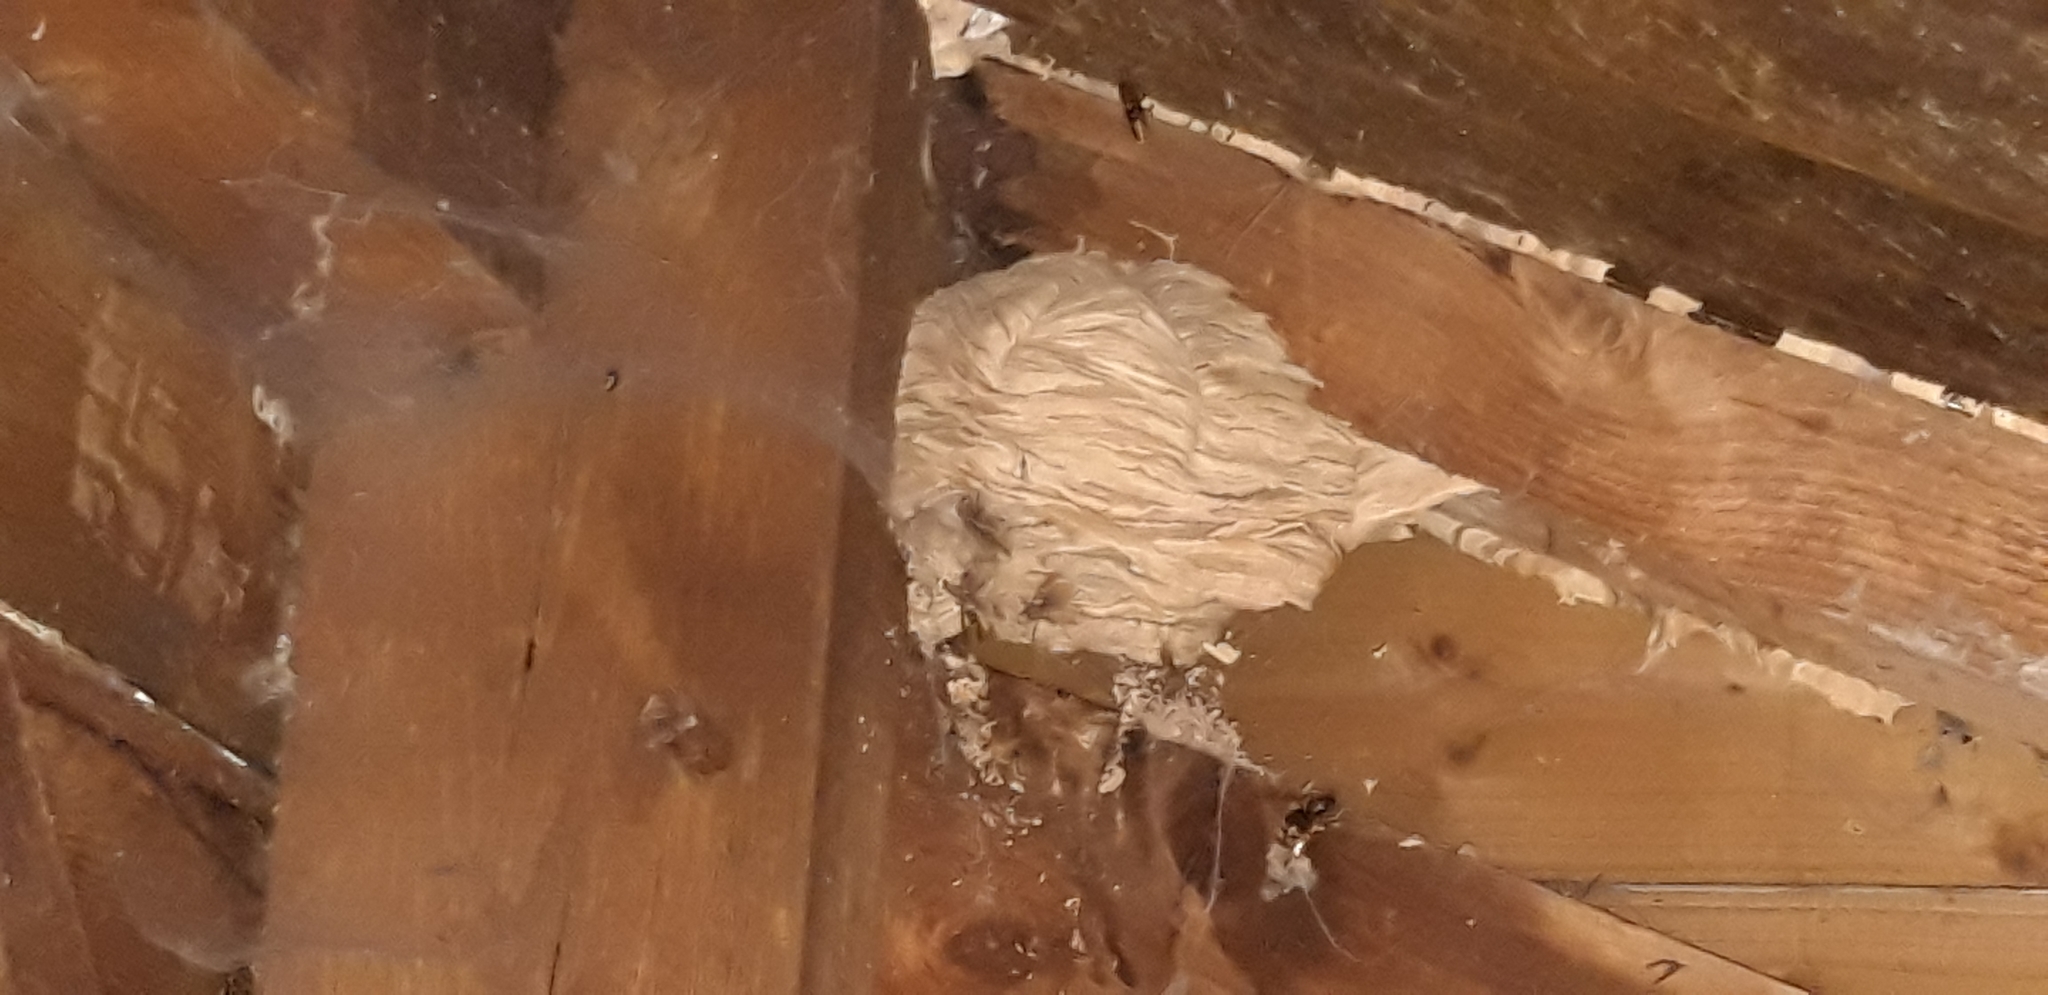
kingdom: Animalia
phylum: Arthropoda
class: Insecta
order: Hymenoptera
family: Vespidae
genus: Vespa
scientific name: Vespa crabro
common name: Hornet
